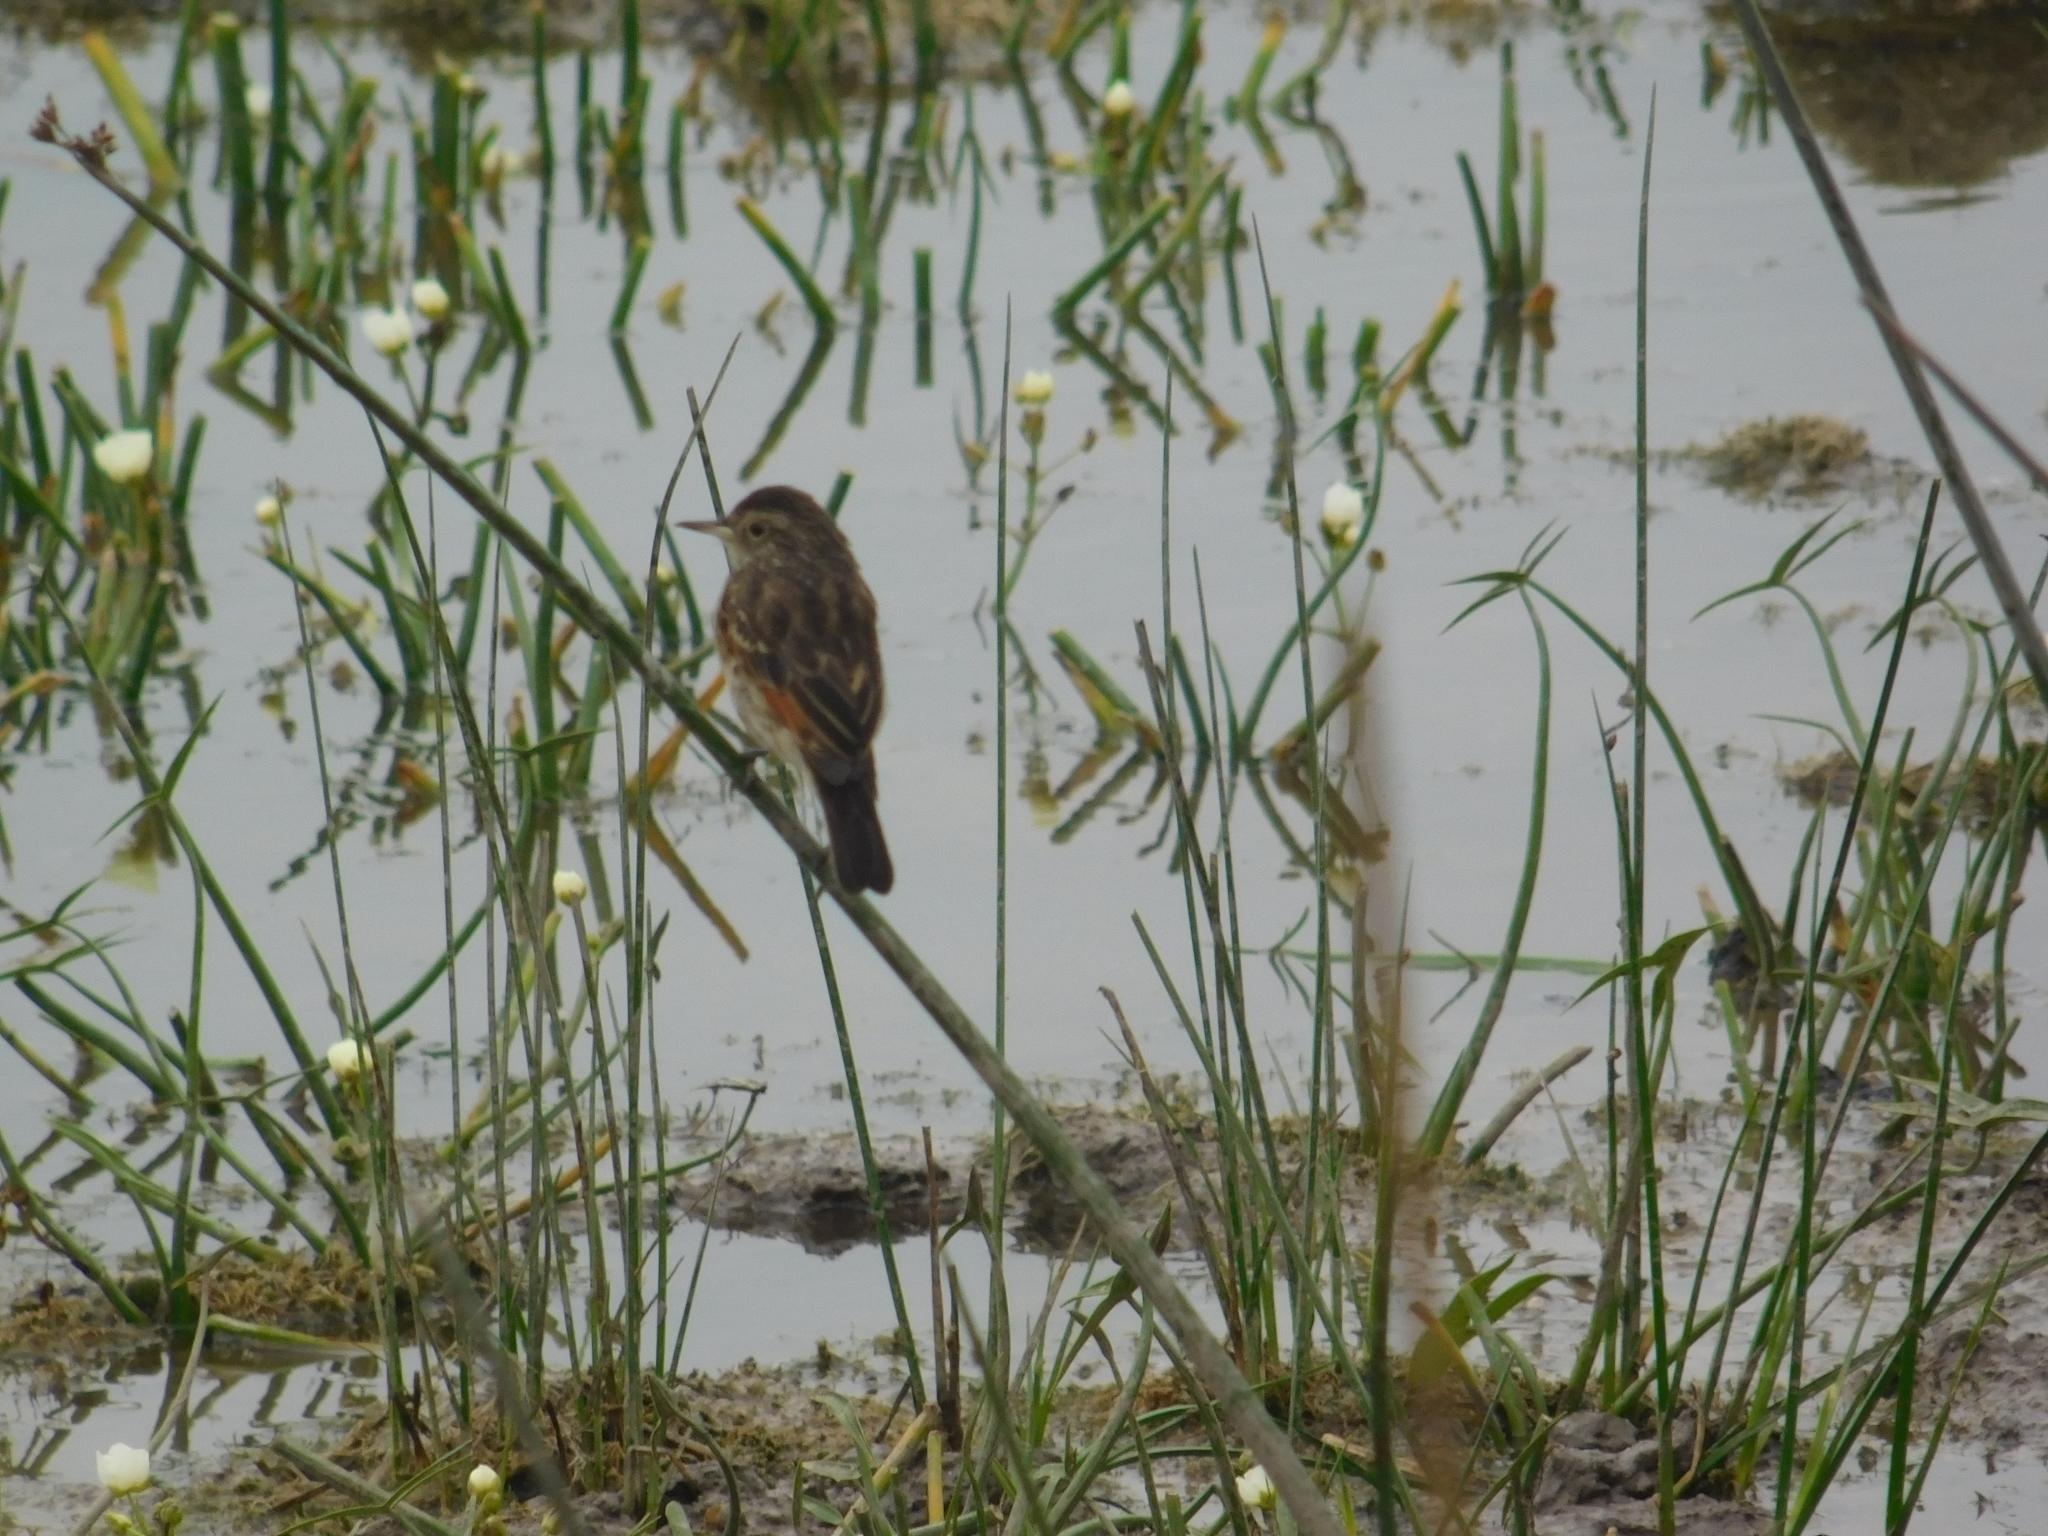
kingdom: Animalia
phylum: Chordata
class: Aves
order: Passeriformes
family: Tyrannidae
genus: Hymenops
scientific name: Hymenops perspicillatus
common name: Spectacled tyrant
